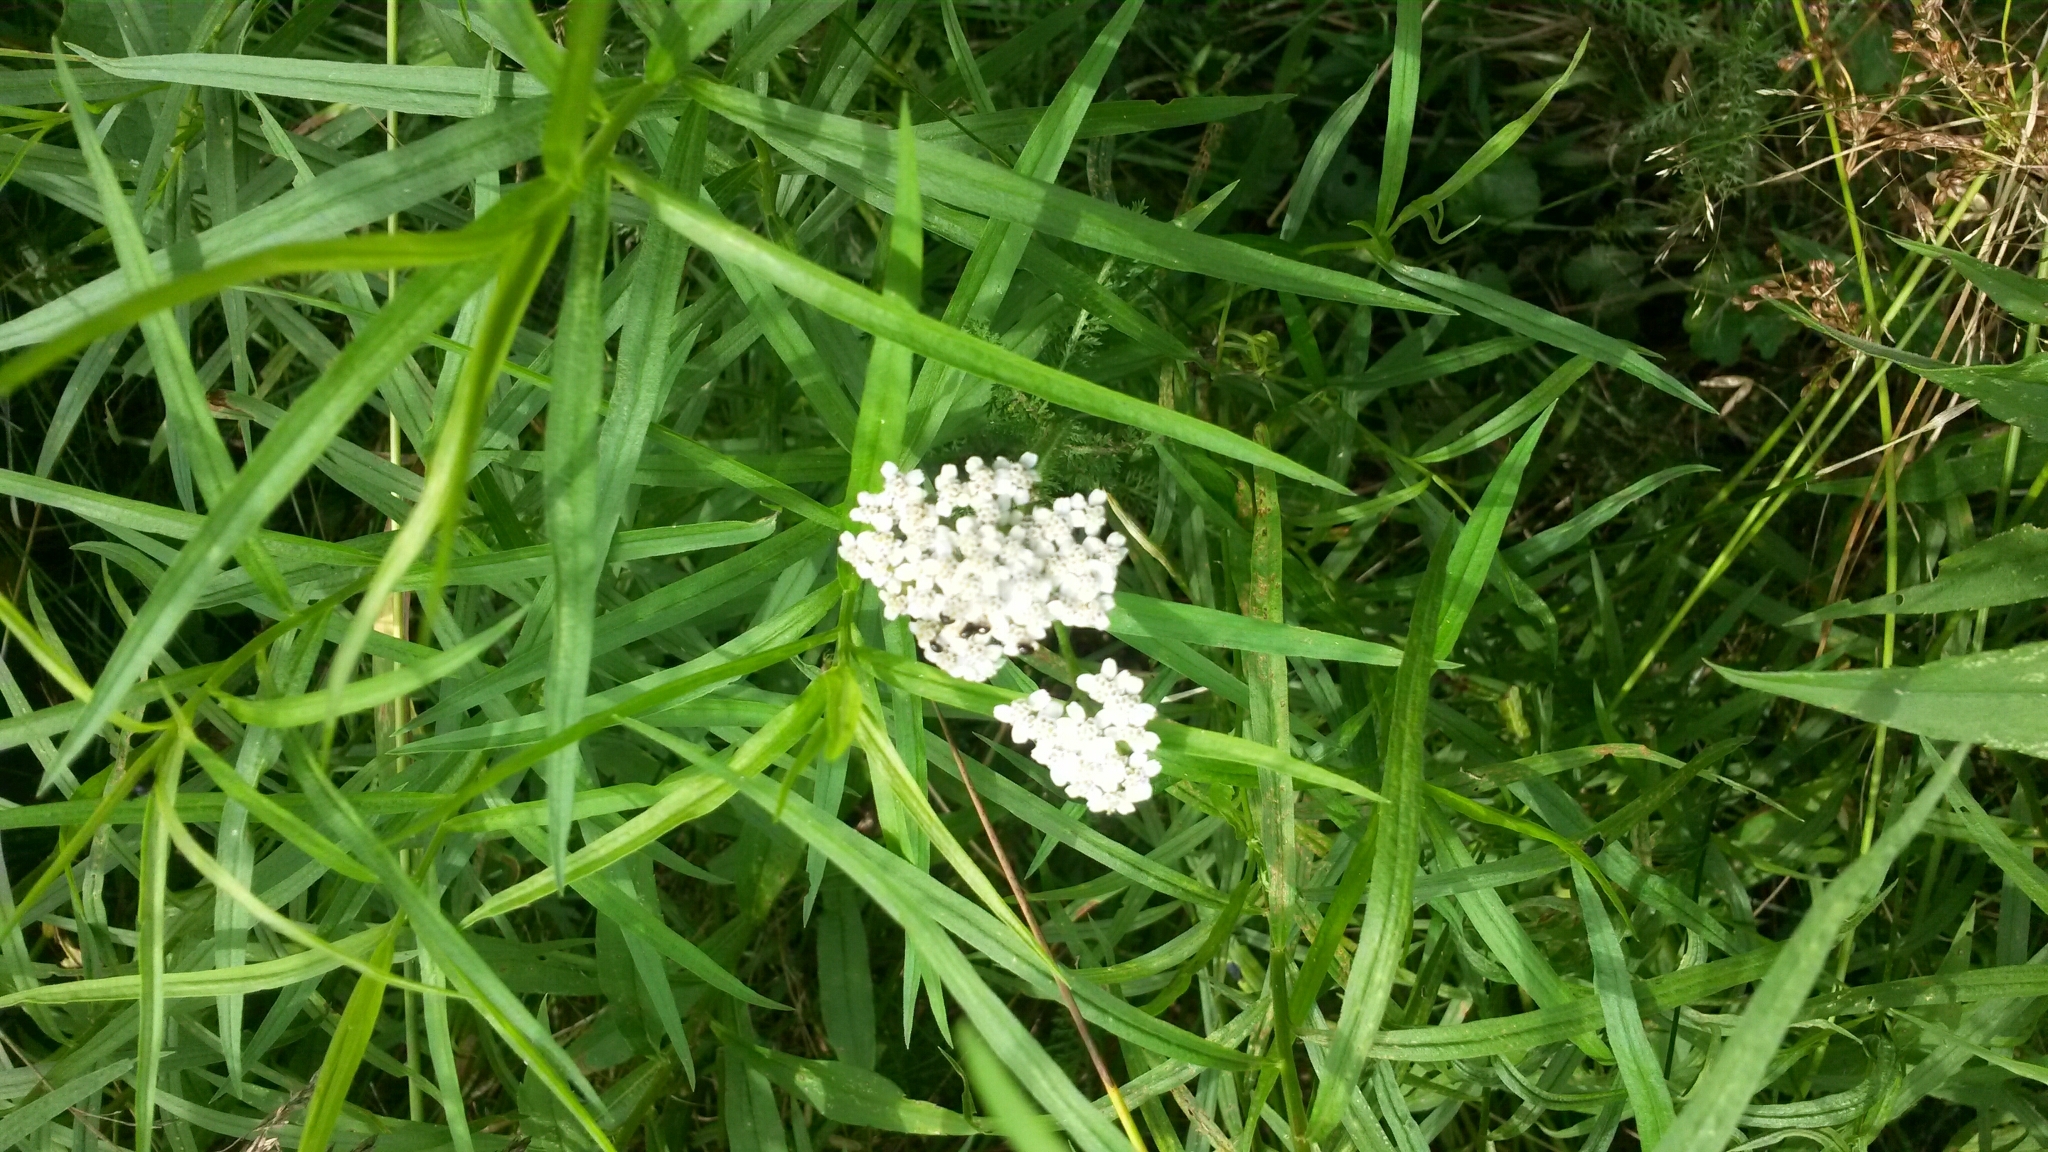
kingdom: Plantae
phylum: Tracheophyta
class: Magnoliopsida
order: Asterales
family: Asteraceae
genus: Achillea
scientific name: Achillea millefolium
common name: Yarrow
